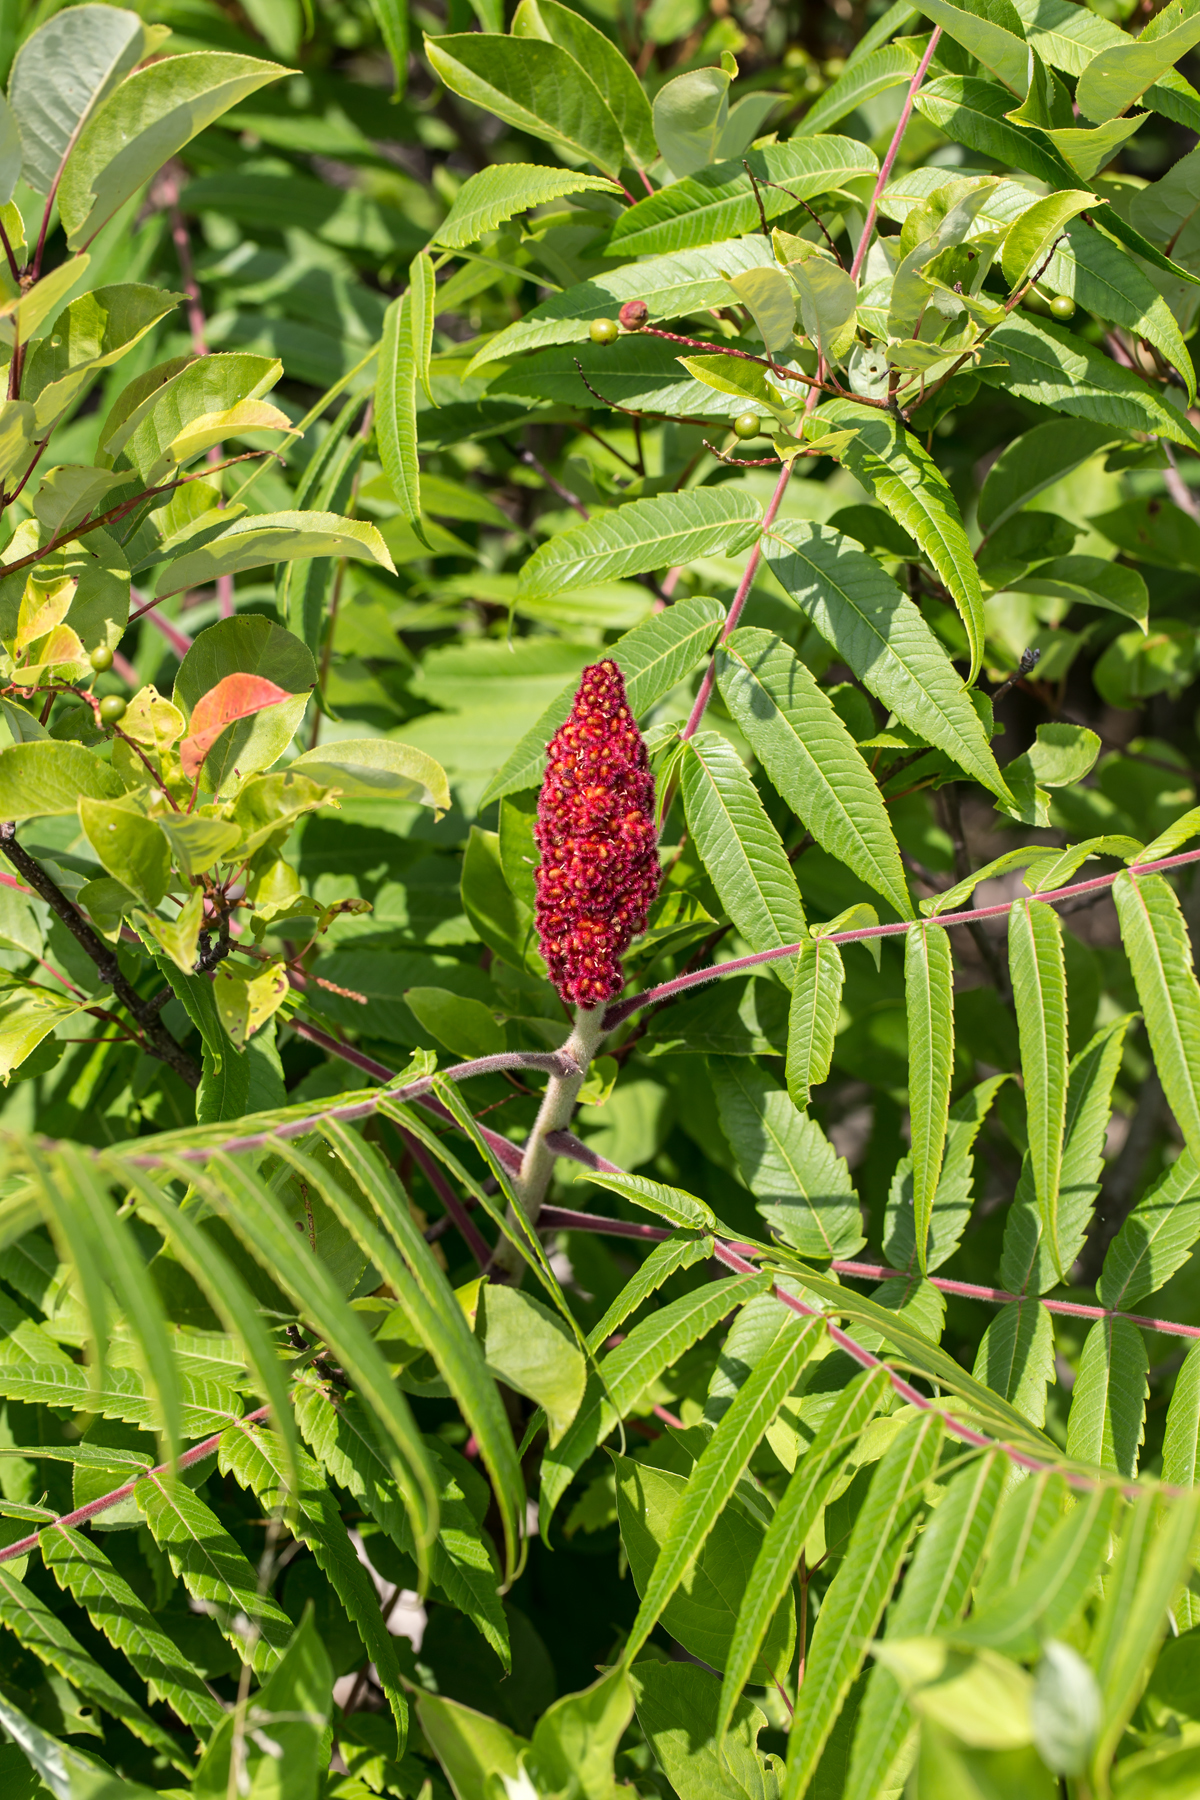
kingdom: Plantae
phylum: Tracheophyta
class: Magnoliopsida
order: Sapindales
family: Anacardiaceae
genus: Rhus
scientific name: Rhus typhina
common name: Staghorn sumac
